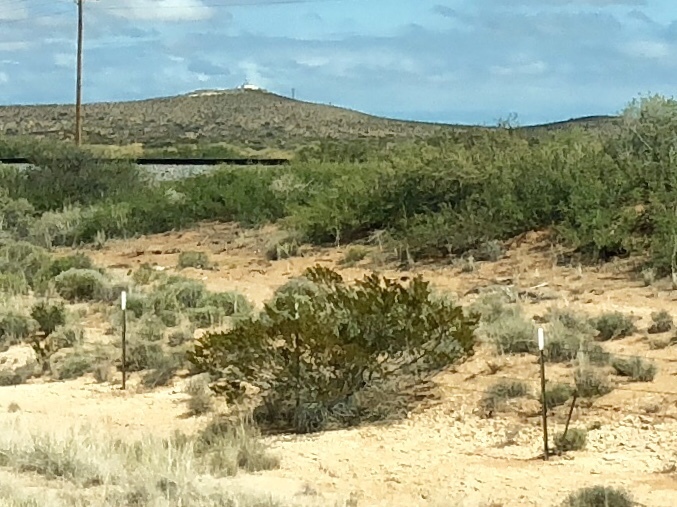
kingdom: Plantae
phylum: Tracheophyta
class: Magnoliopsida
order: Zygophyllales
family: Zygophyllaceae
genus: Larrea
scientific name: Larrea tridentata
